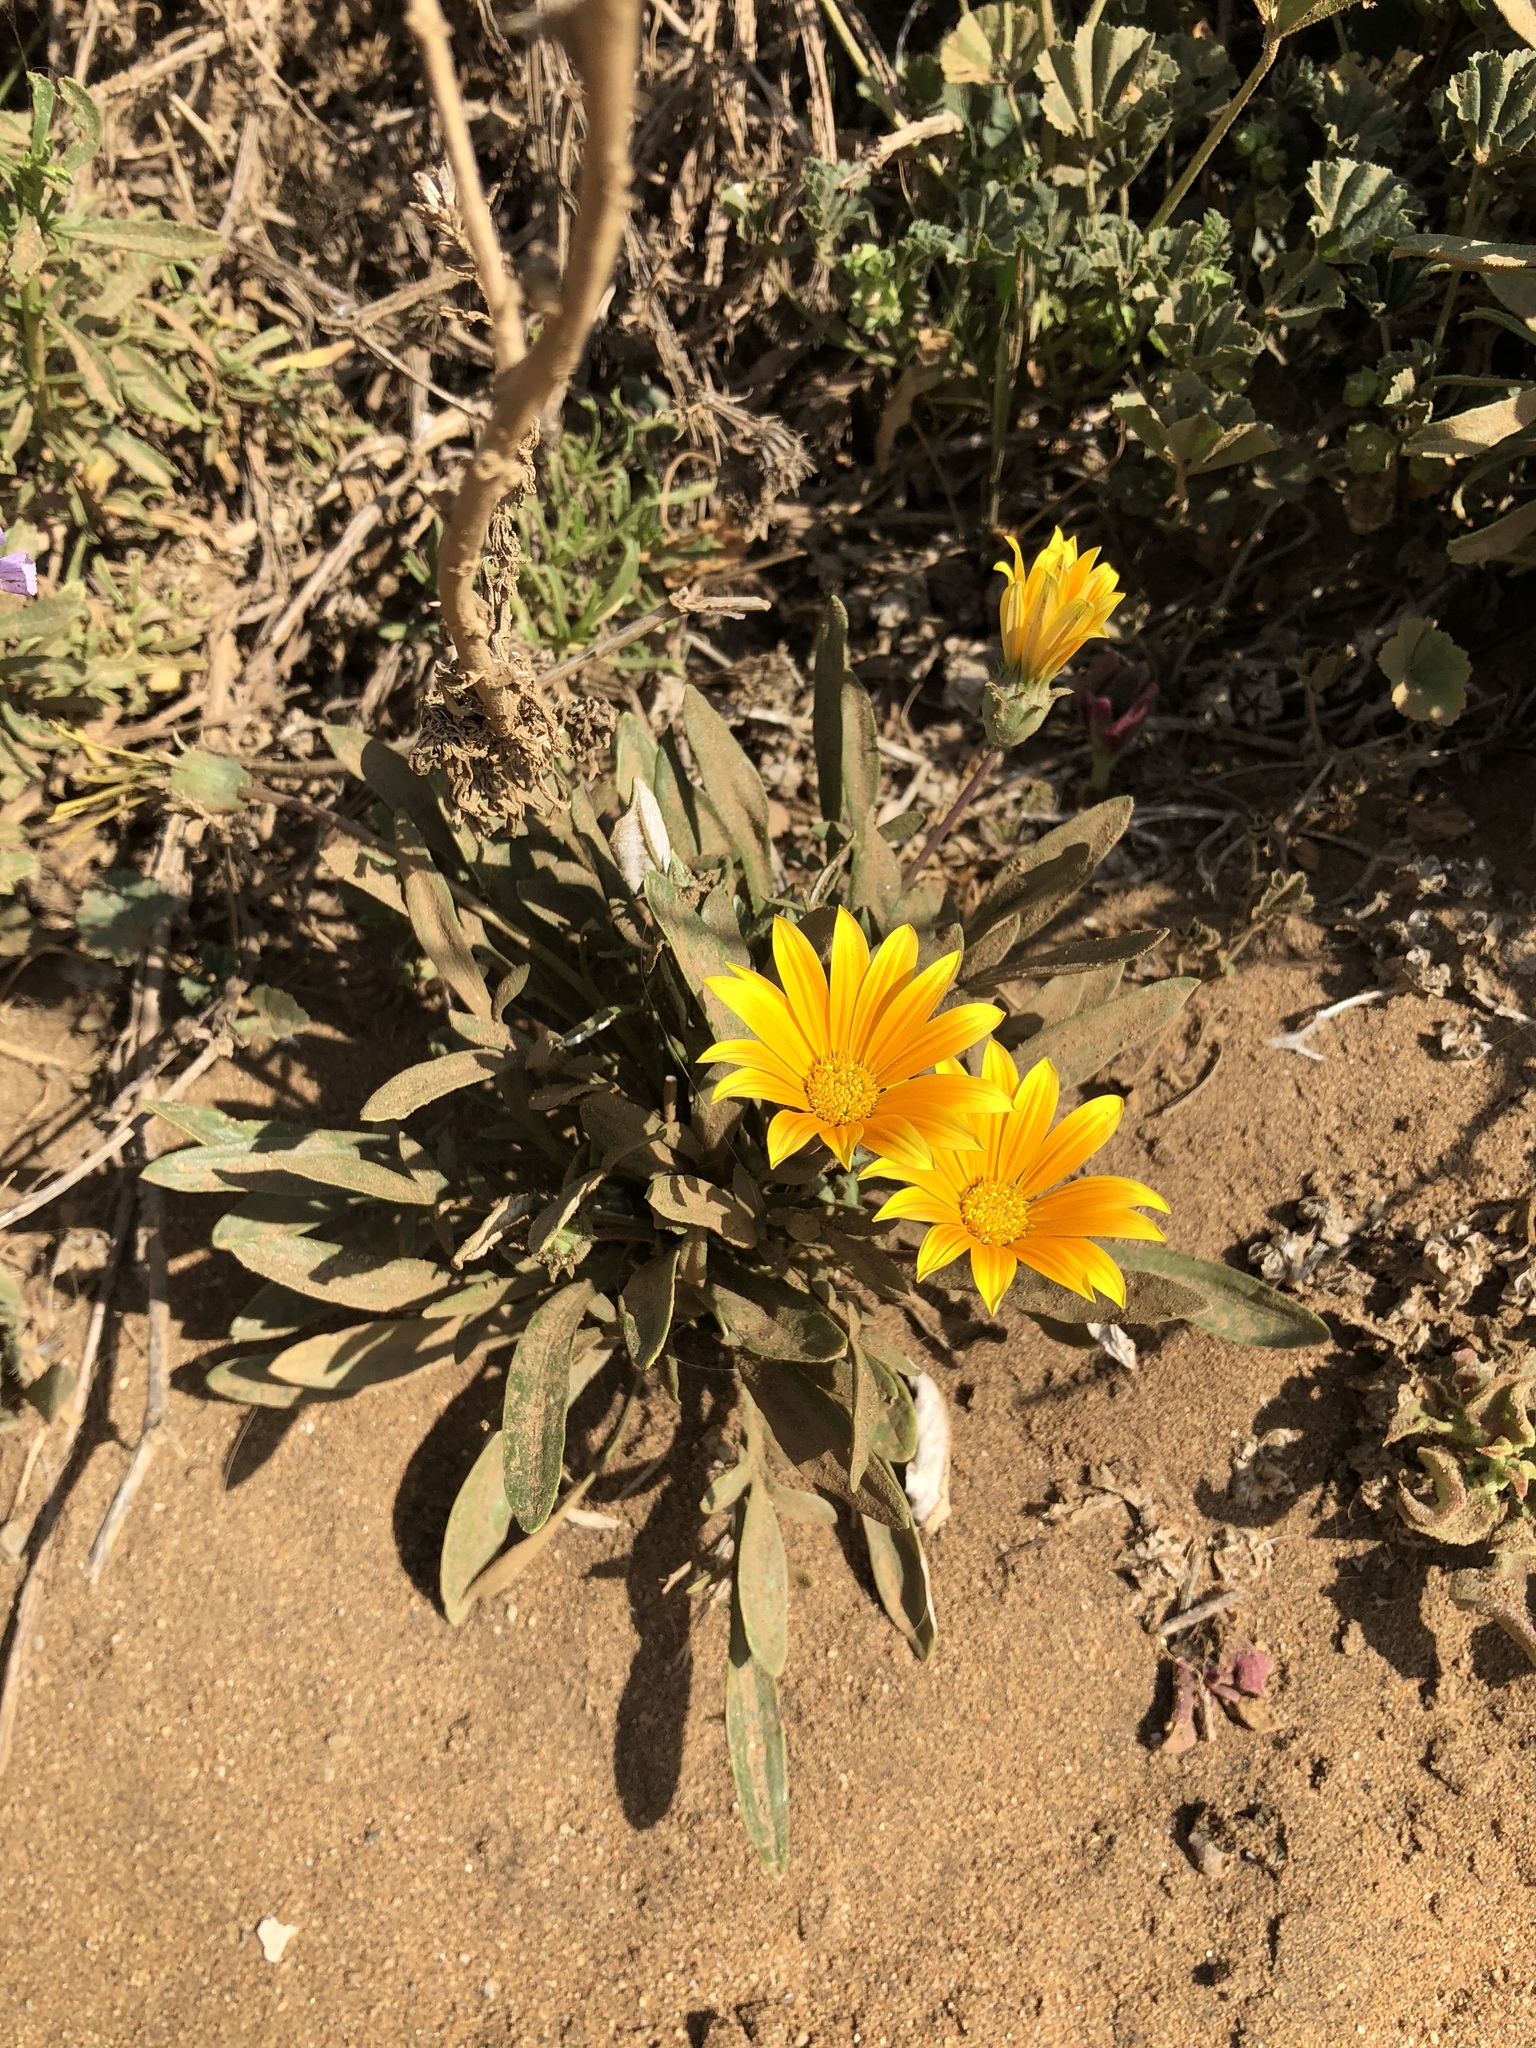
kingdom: Plantae
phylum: Tracheophyta
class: Magnoliopsida
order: Asterales
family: Asteraceae
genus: Gazania
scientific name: Gazania linearis
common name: Treasureflower
